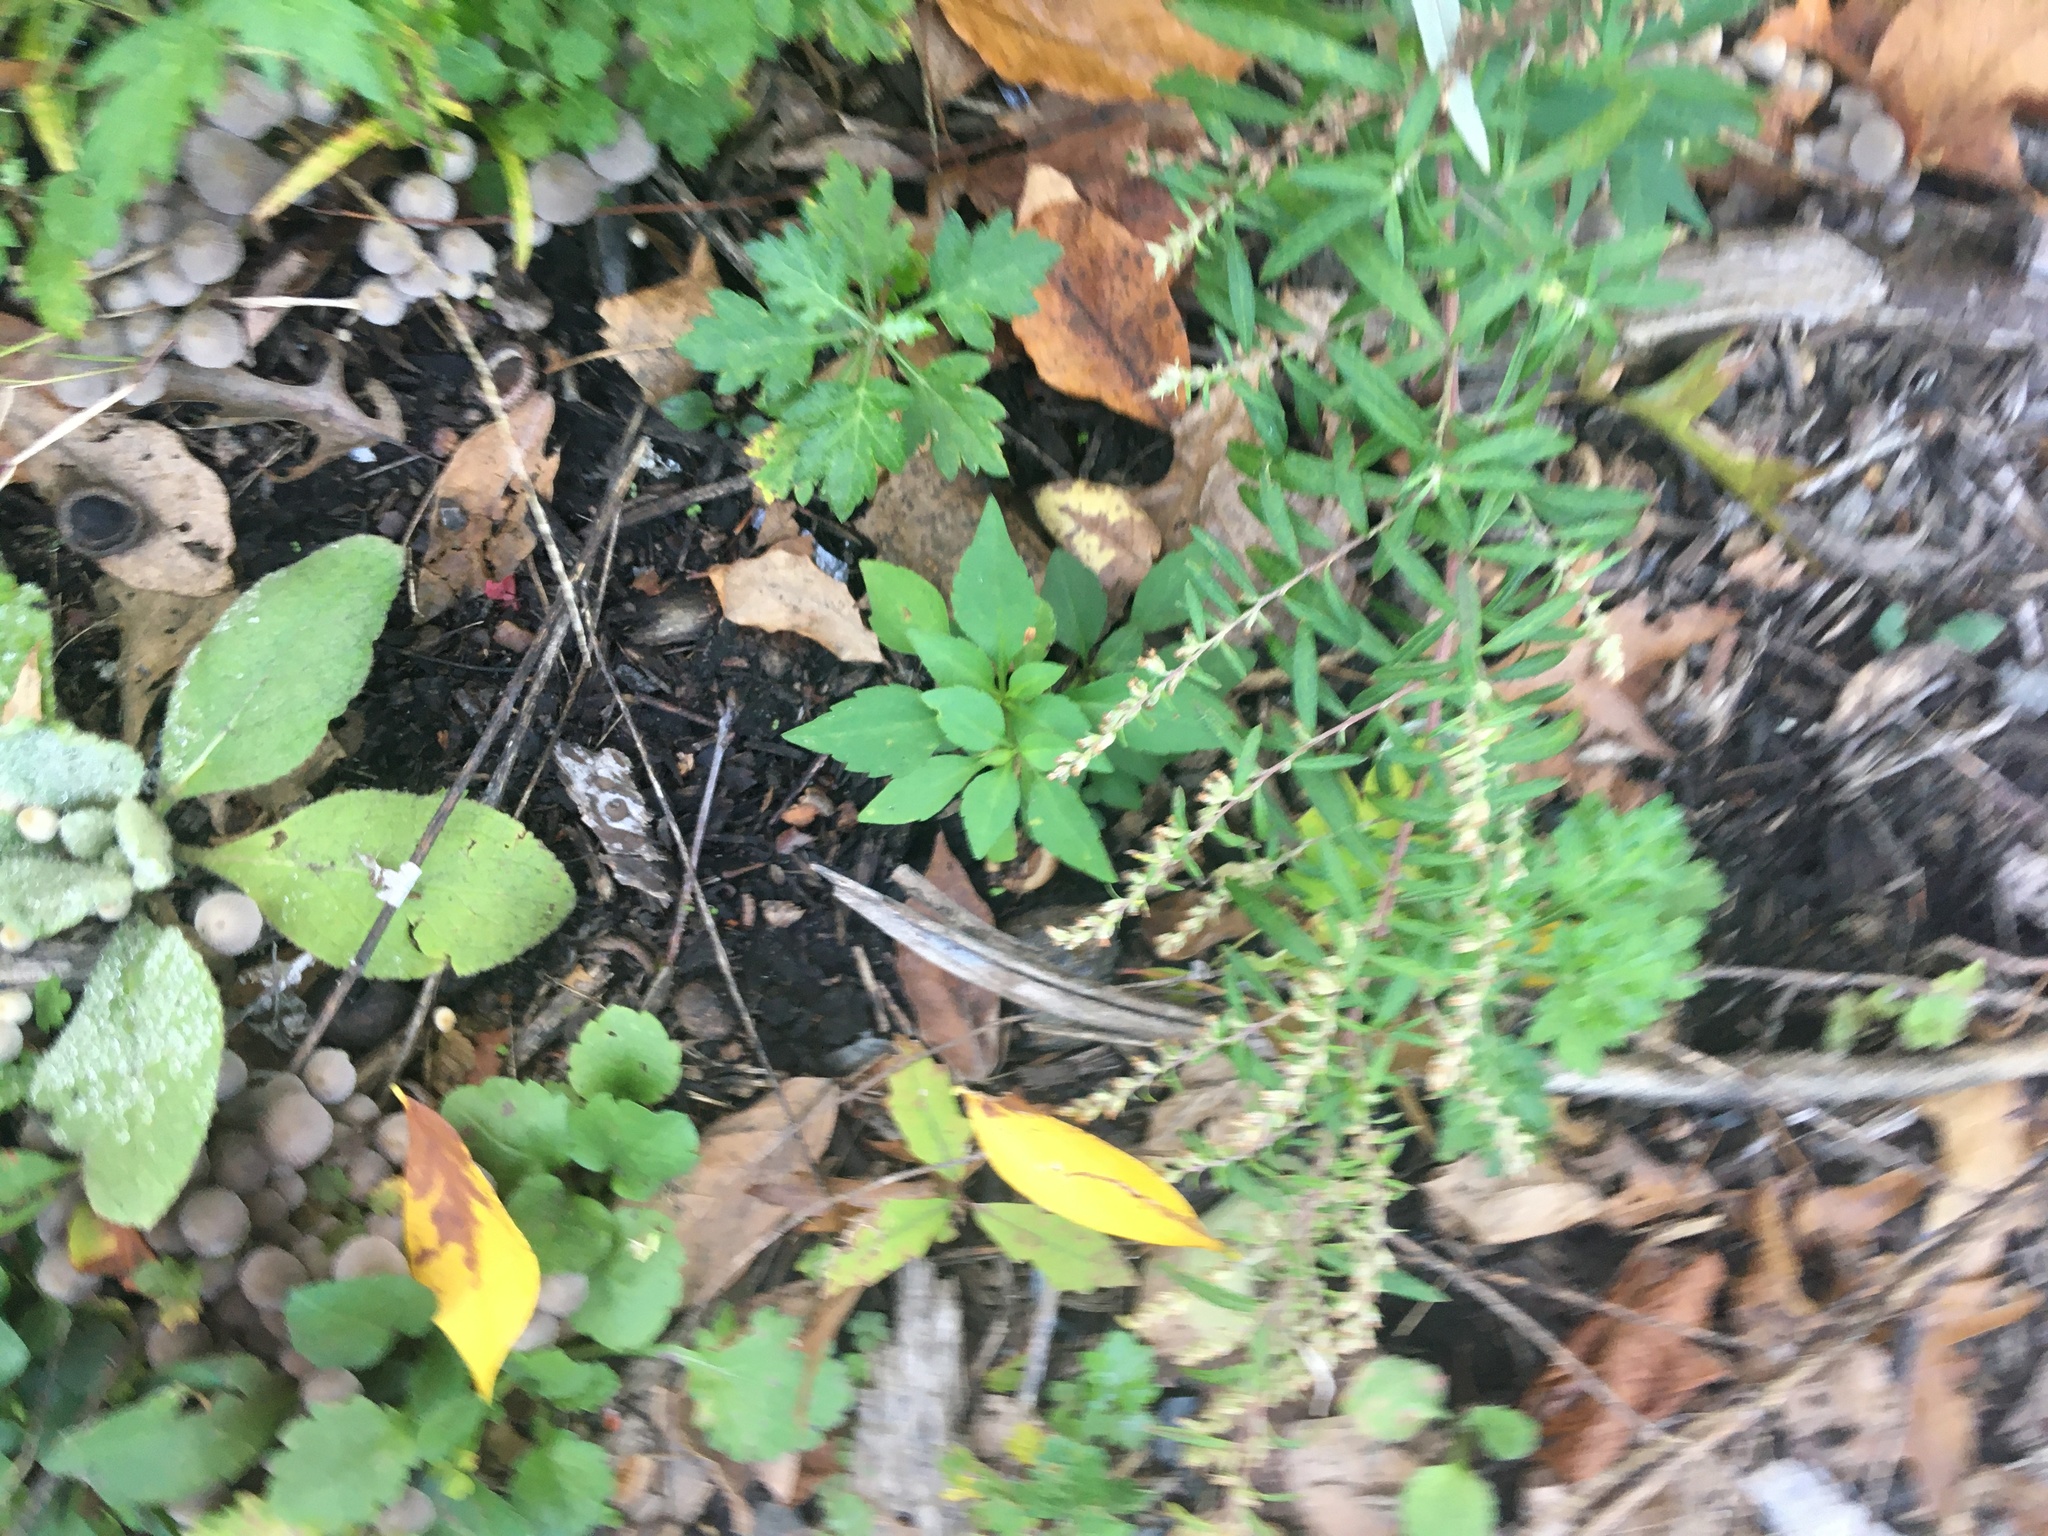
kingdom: Plantae
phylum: Tracheophyta
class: Magnoliopsida
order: Asterales
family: Asteraceae
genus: Artemisia
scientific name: Artemisia vulgaris
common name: Mugwort
